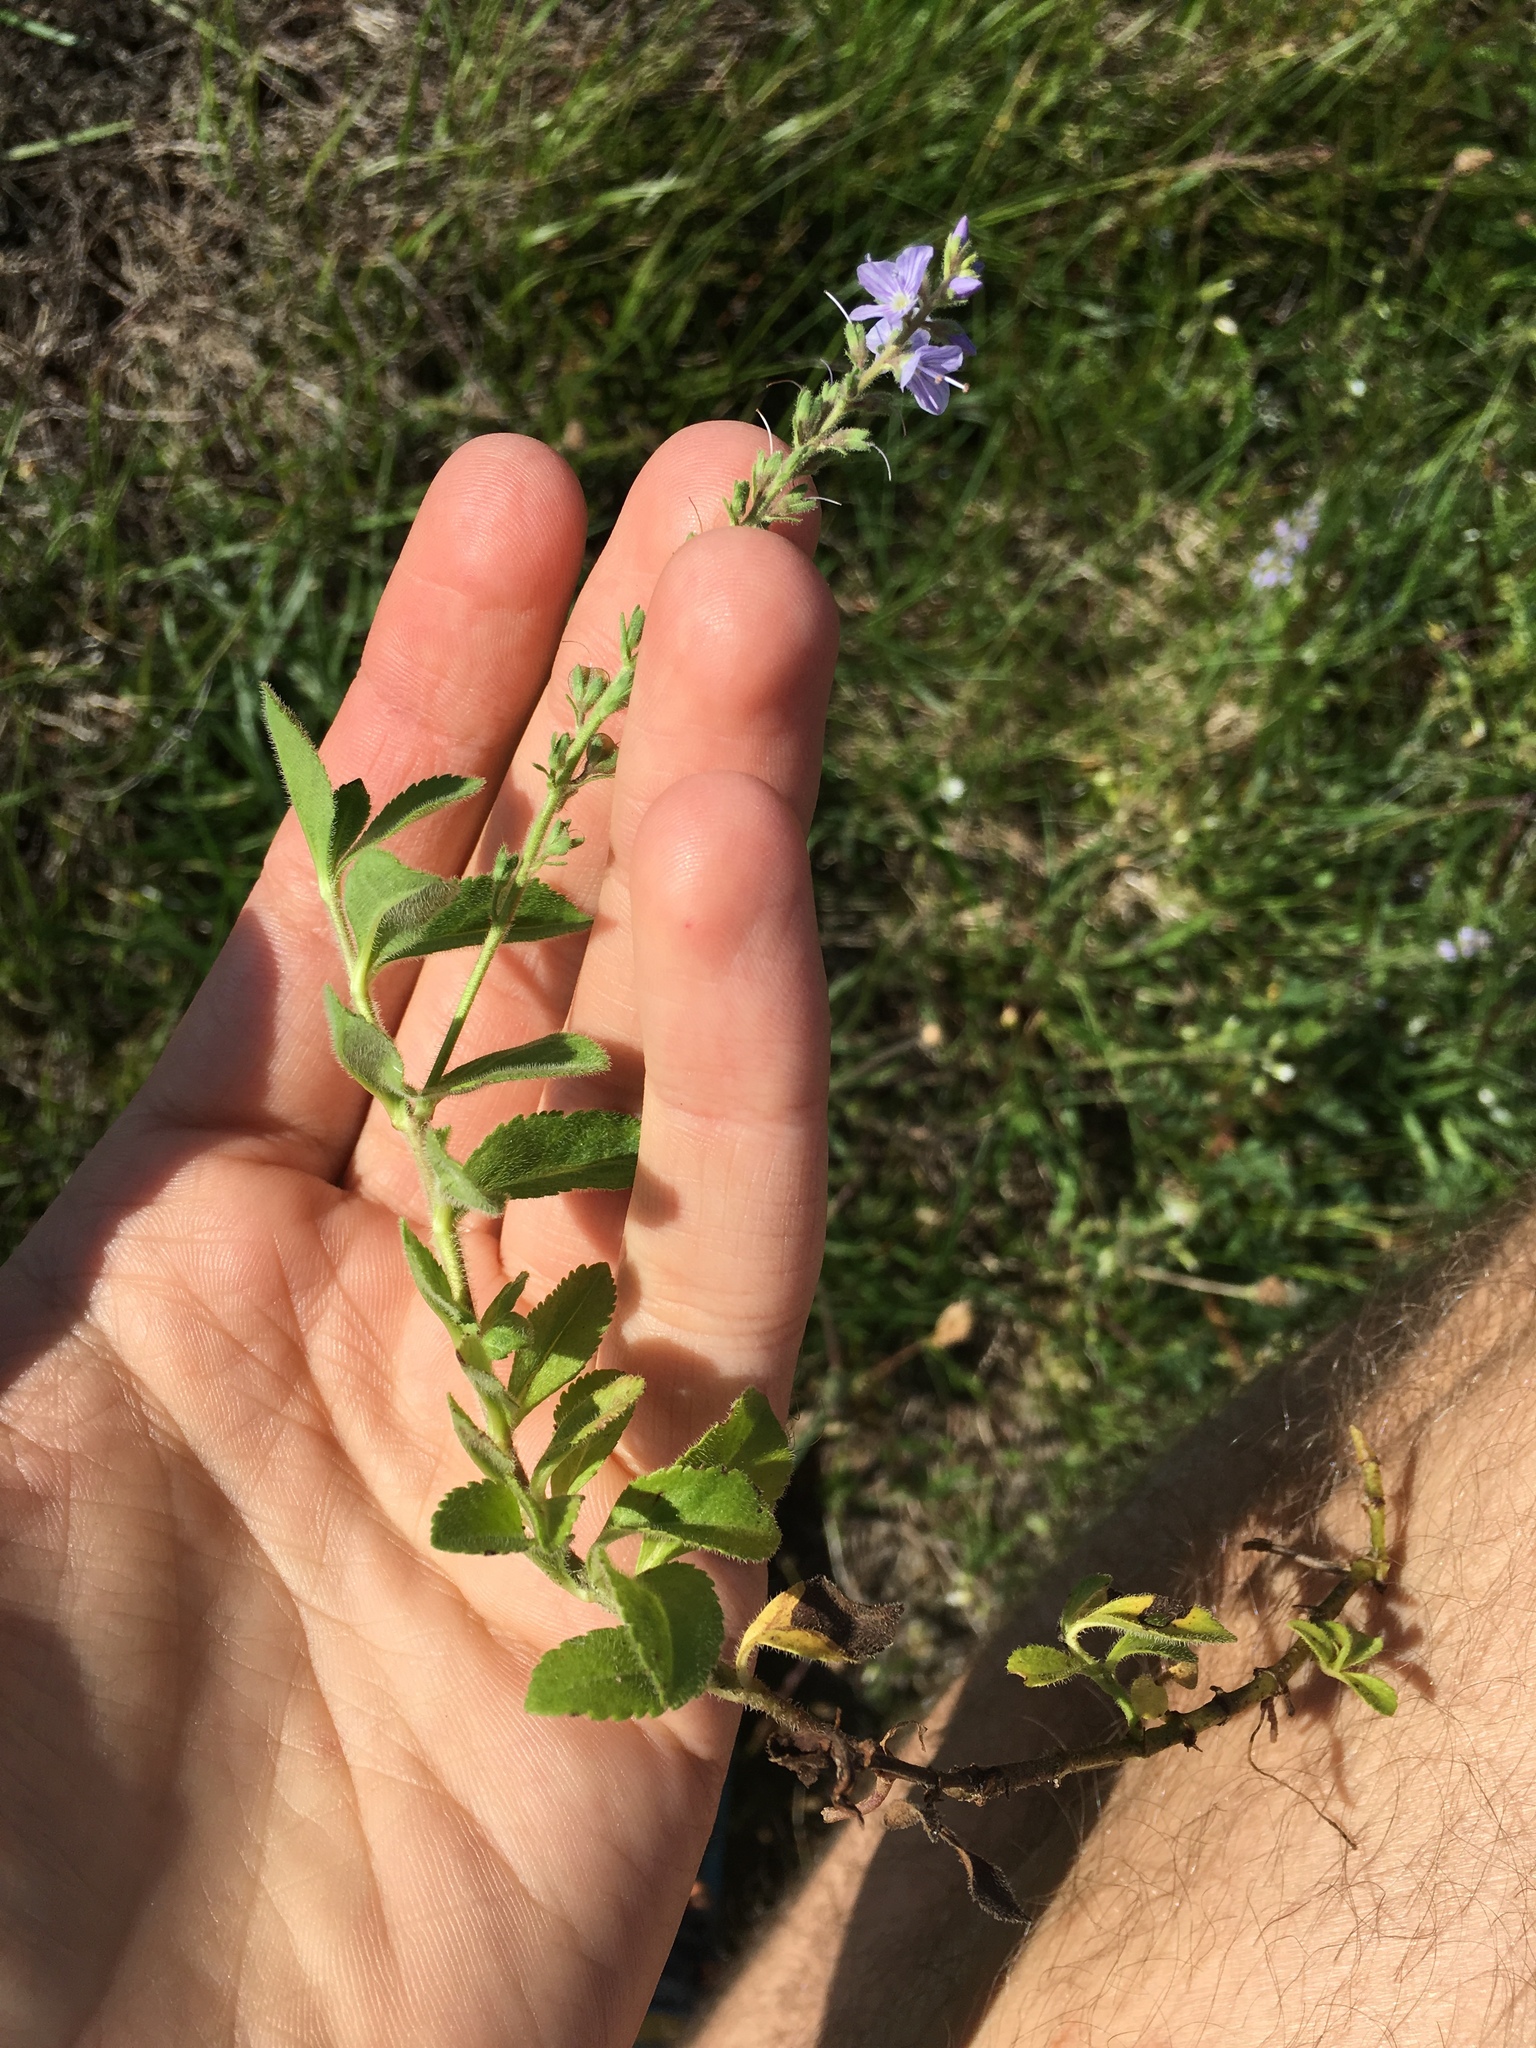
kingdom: Plantae
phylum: Tracheophyta
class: Magnoliopsida
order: Lamiales
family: Plantaginaceae
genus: Veronica
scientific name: Veronica officinalis
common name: Common speedwell
